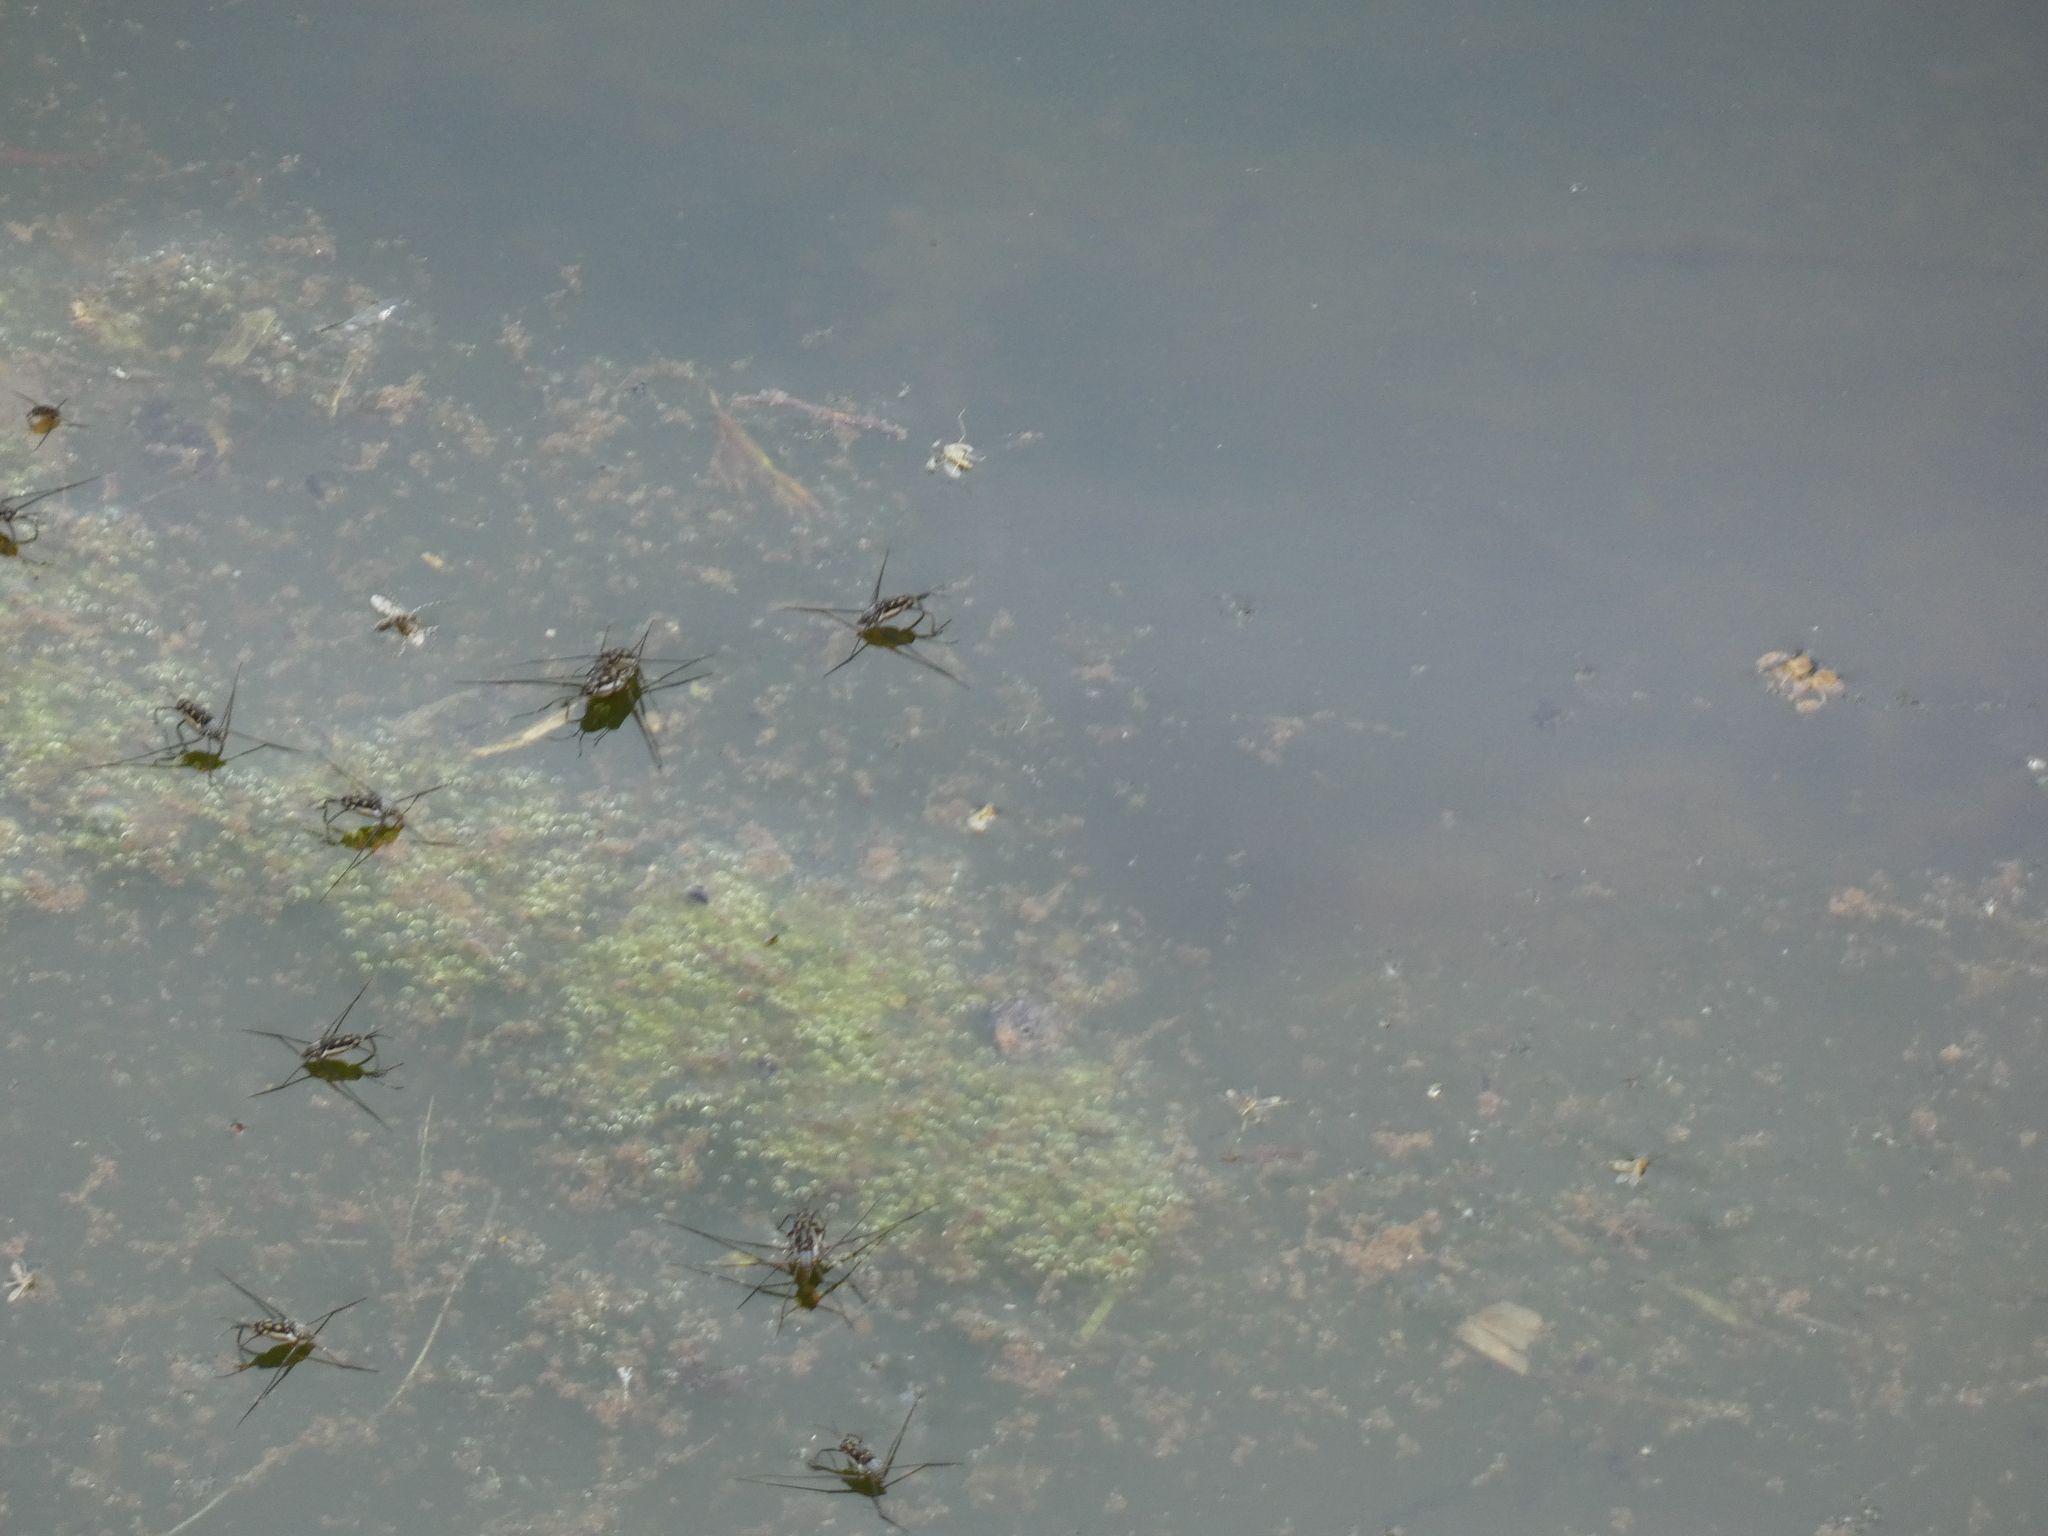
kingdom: Animalia
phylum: Arthropoda
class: Insecta
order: Hemiptera
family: Gerridae
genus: Trepobates
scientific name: Trepobates subnitidus
